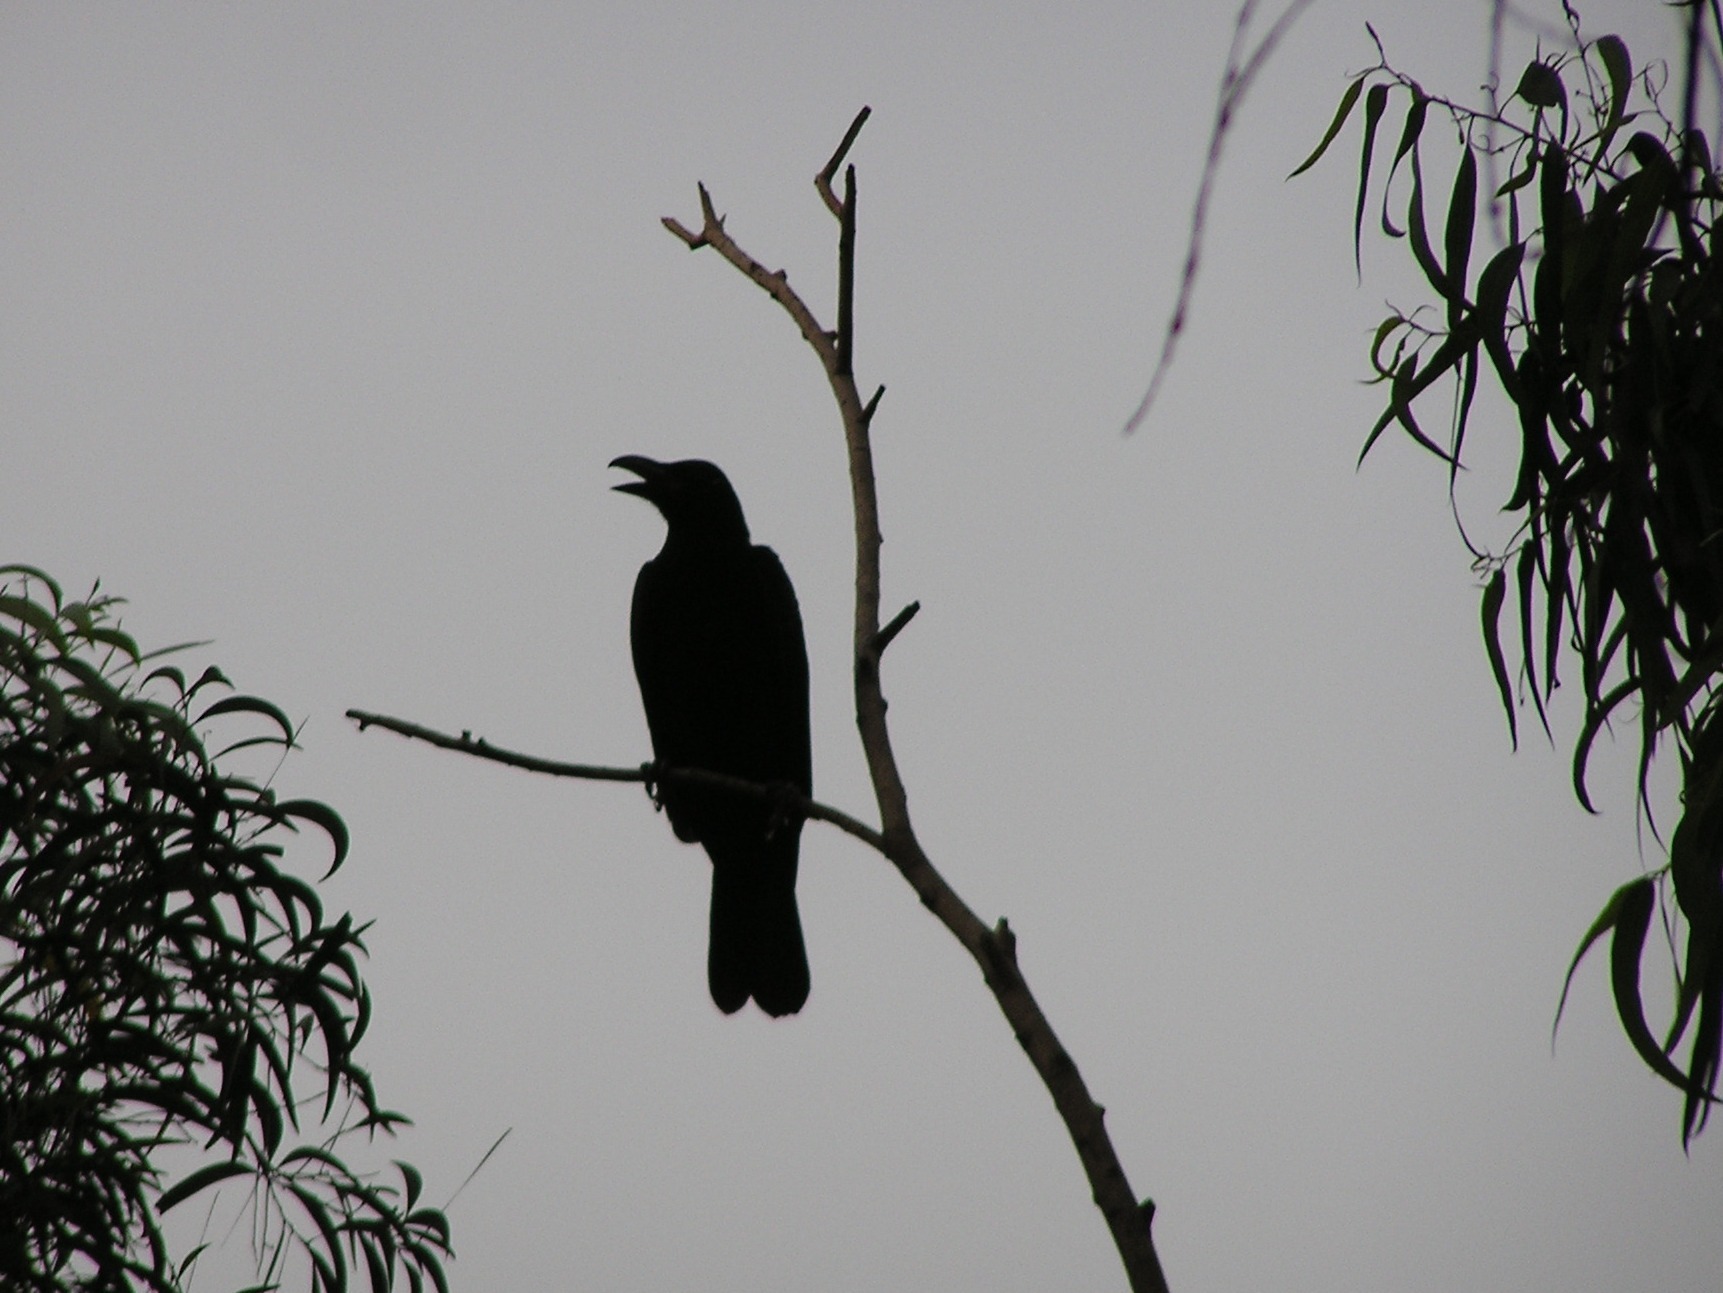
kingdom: Animalia
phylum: Chordata
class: Aves
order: Passeriformes
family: Corvidae
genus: Corvus
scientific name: Corvus macrorhynchos
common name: Large-billed crow
